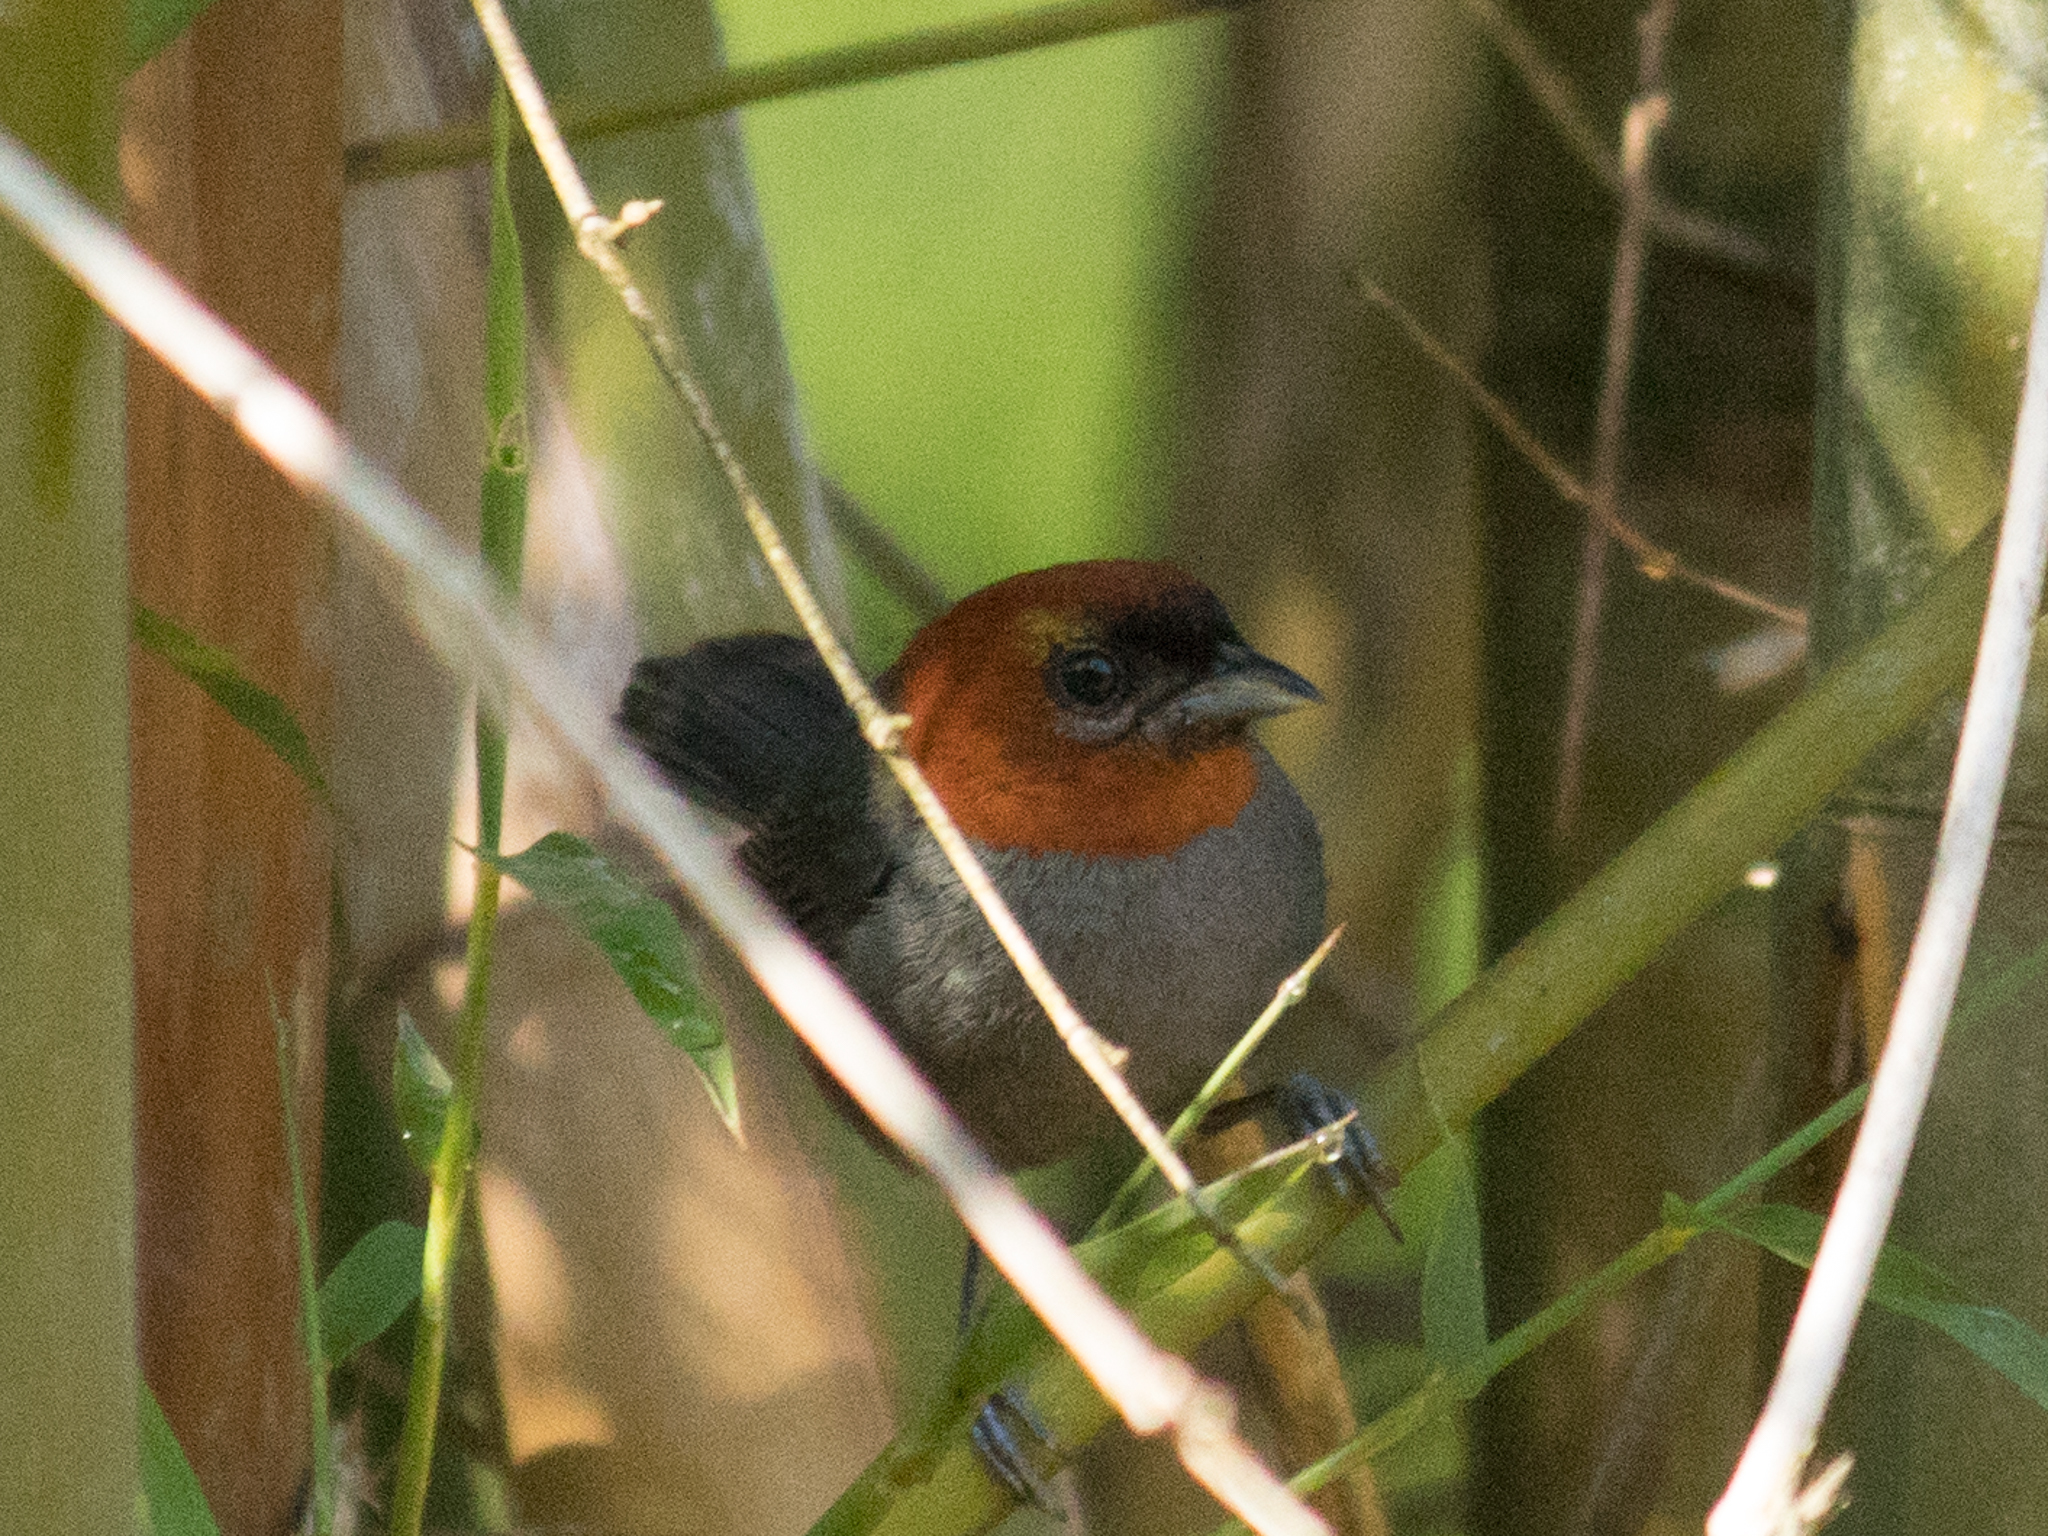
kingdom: Animalia
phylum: Chordata
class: Aves
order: Passeriformes
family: Thraupidae
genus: Thlypopsis
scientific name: Thlypopsis pyrrhocoma
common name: Chestnut-headed tanager
